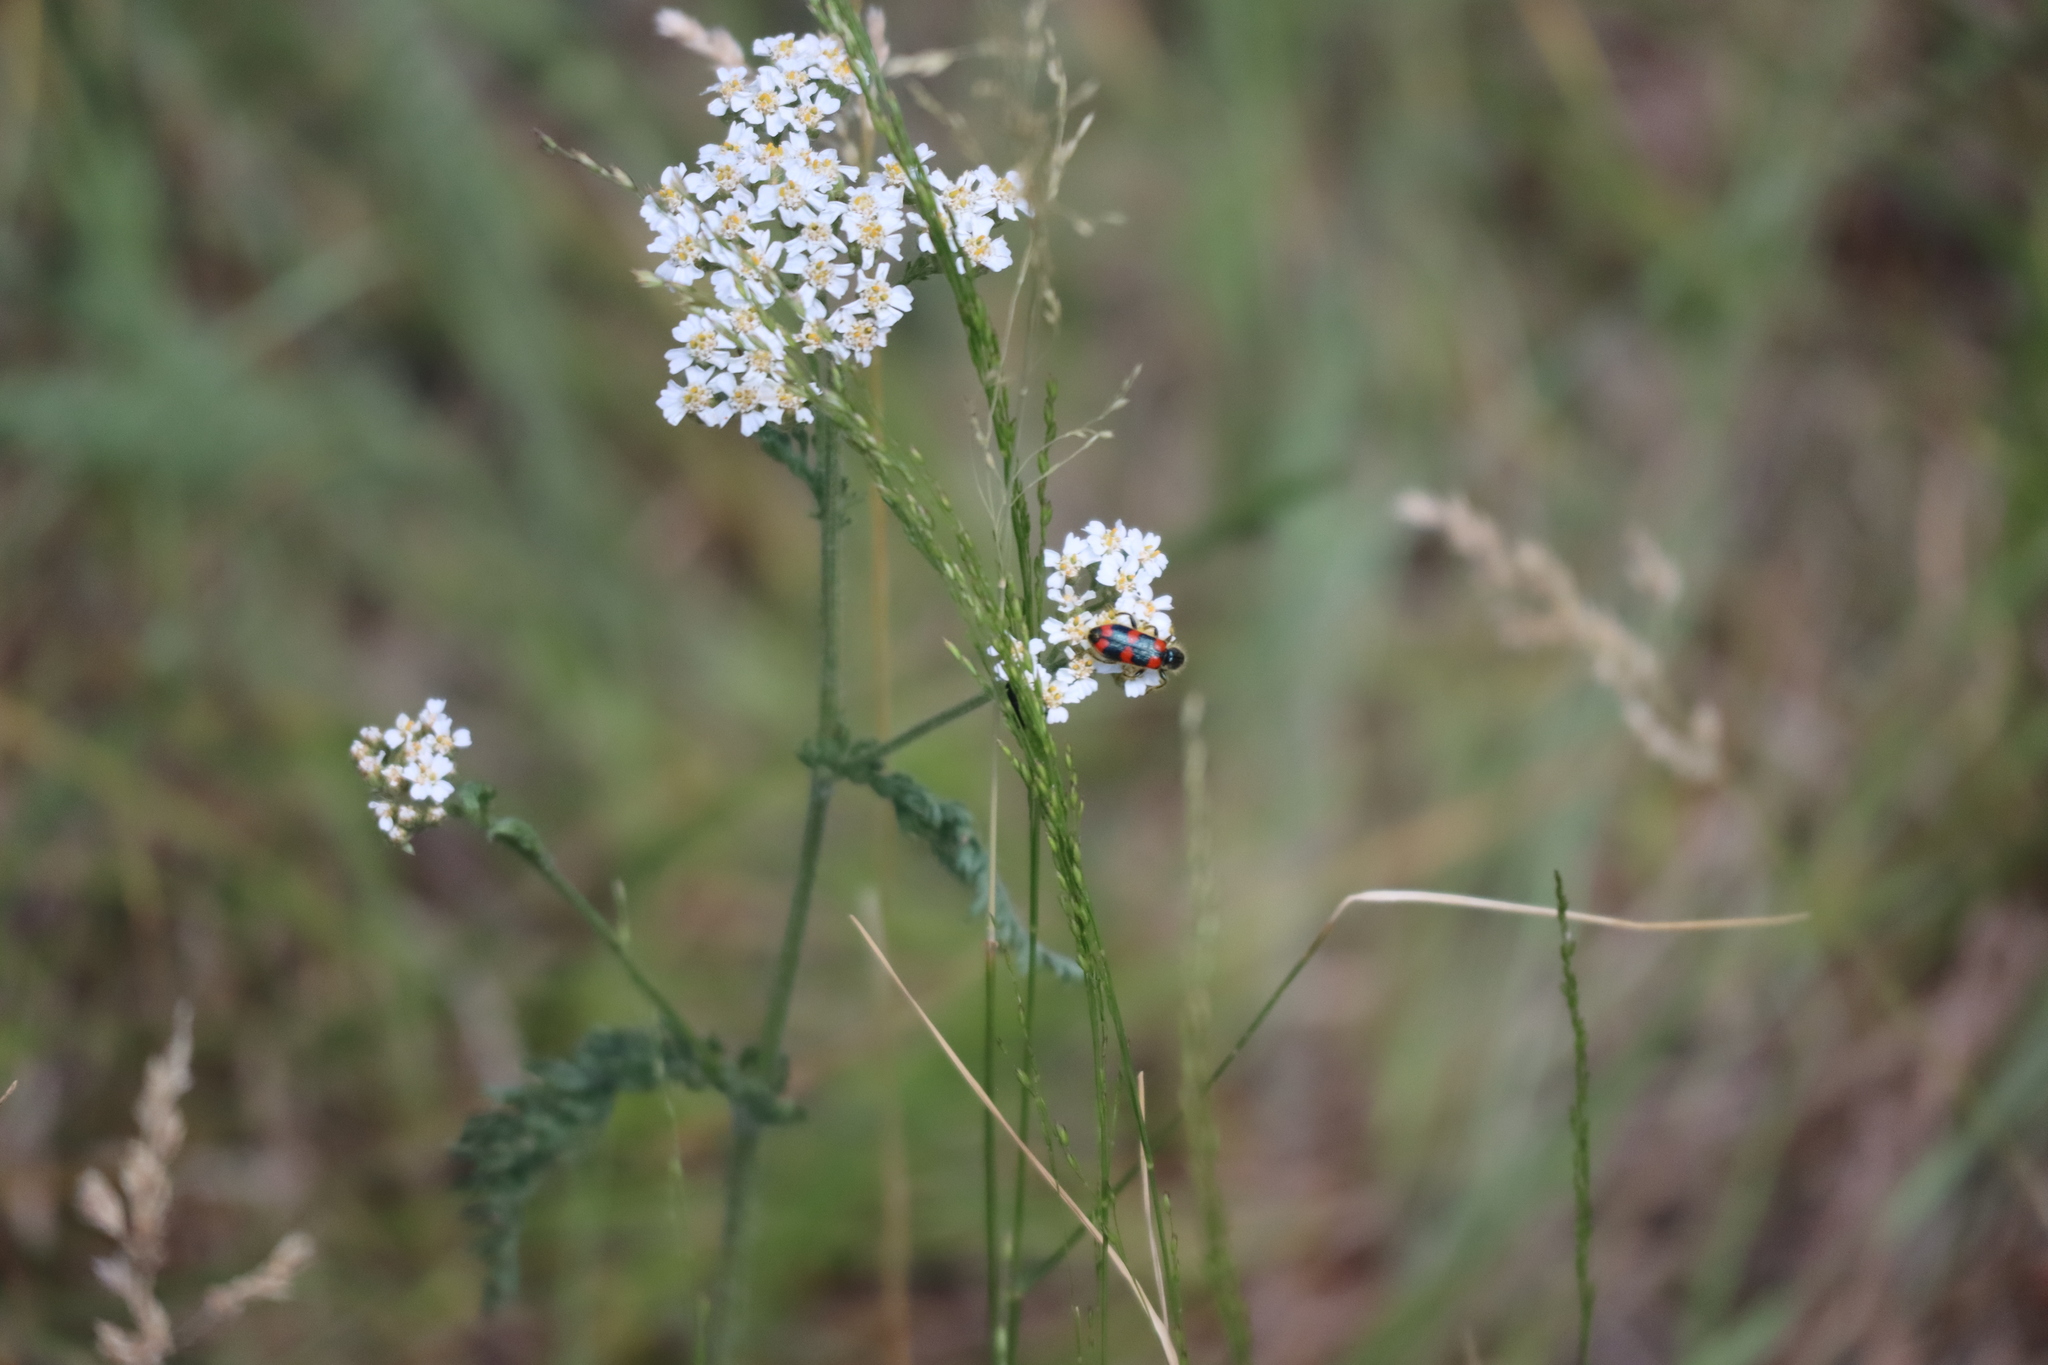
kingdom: Animalia
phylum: Arthropoda
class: Insecta
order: Coleoptera
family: Cleridae
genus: Trichodes
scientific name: Trichodes nutalli
